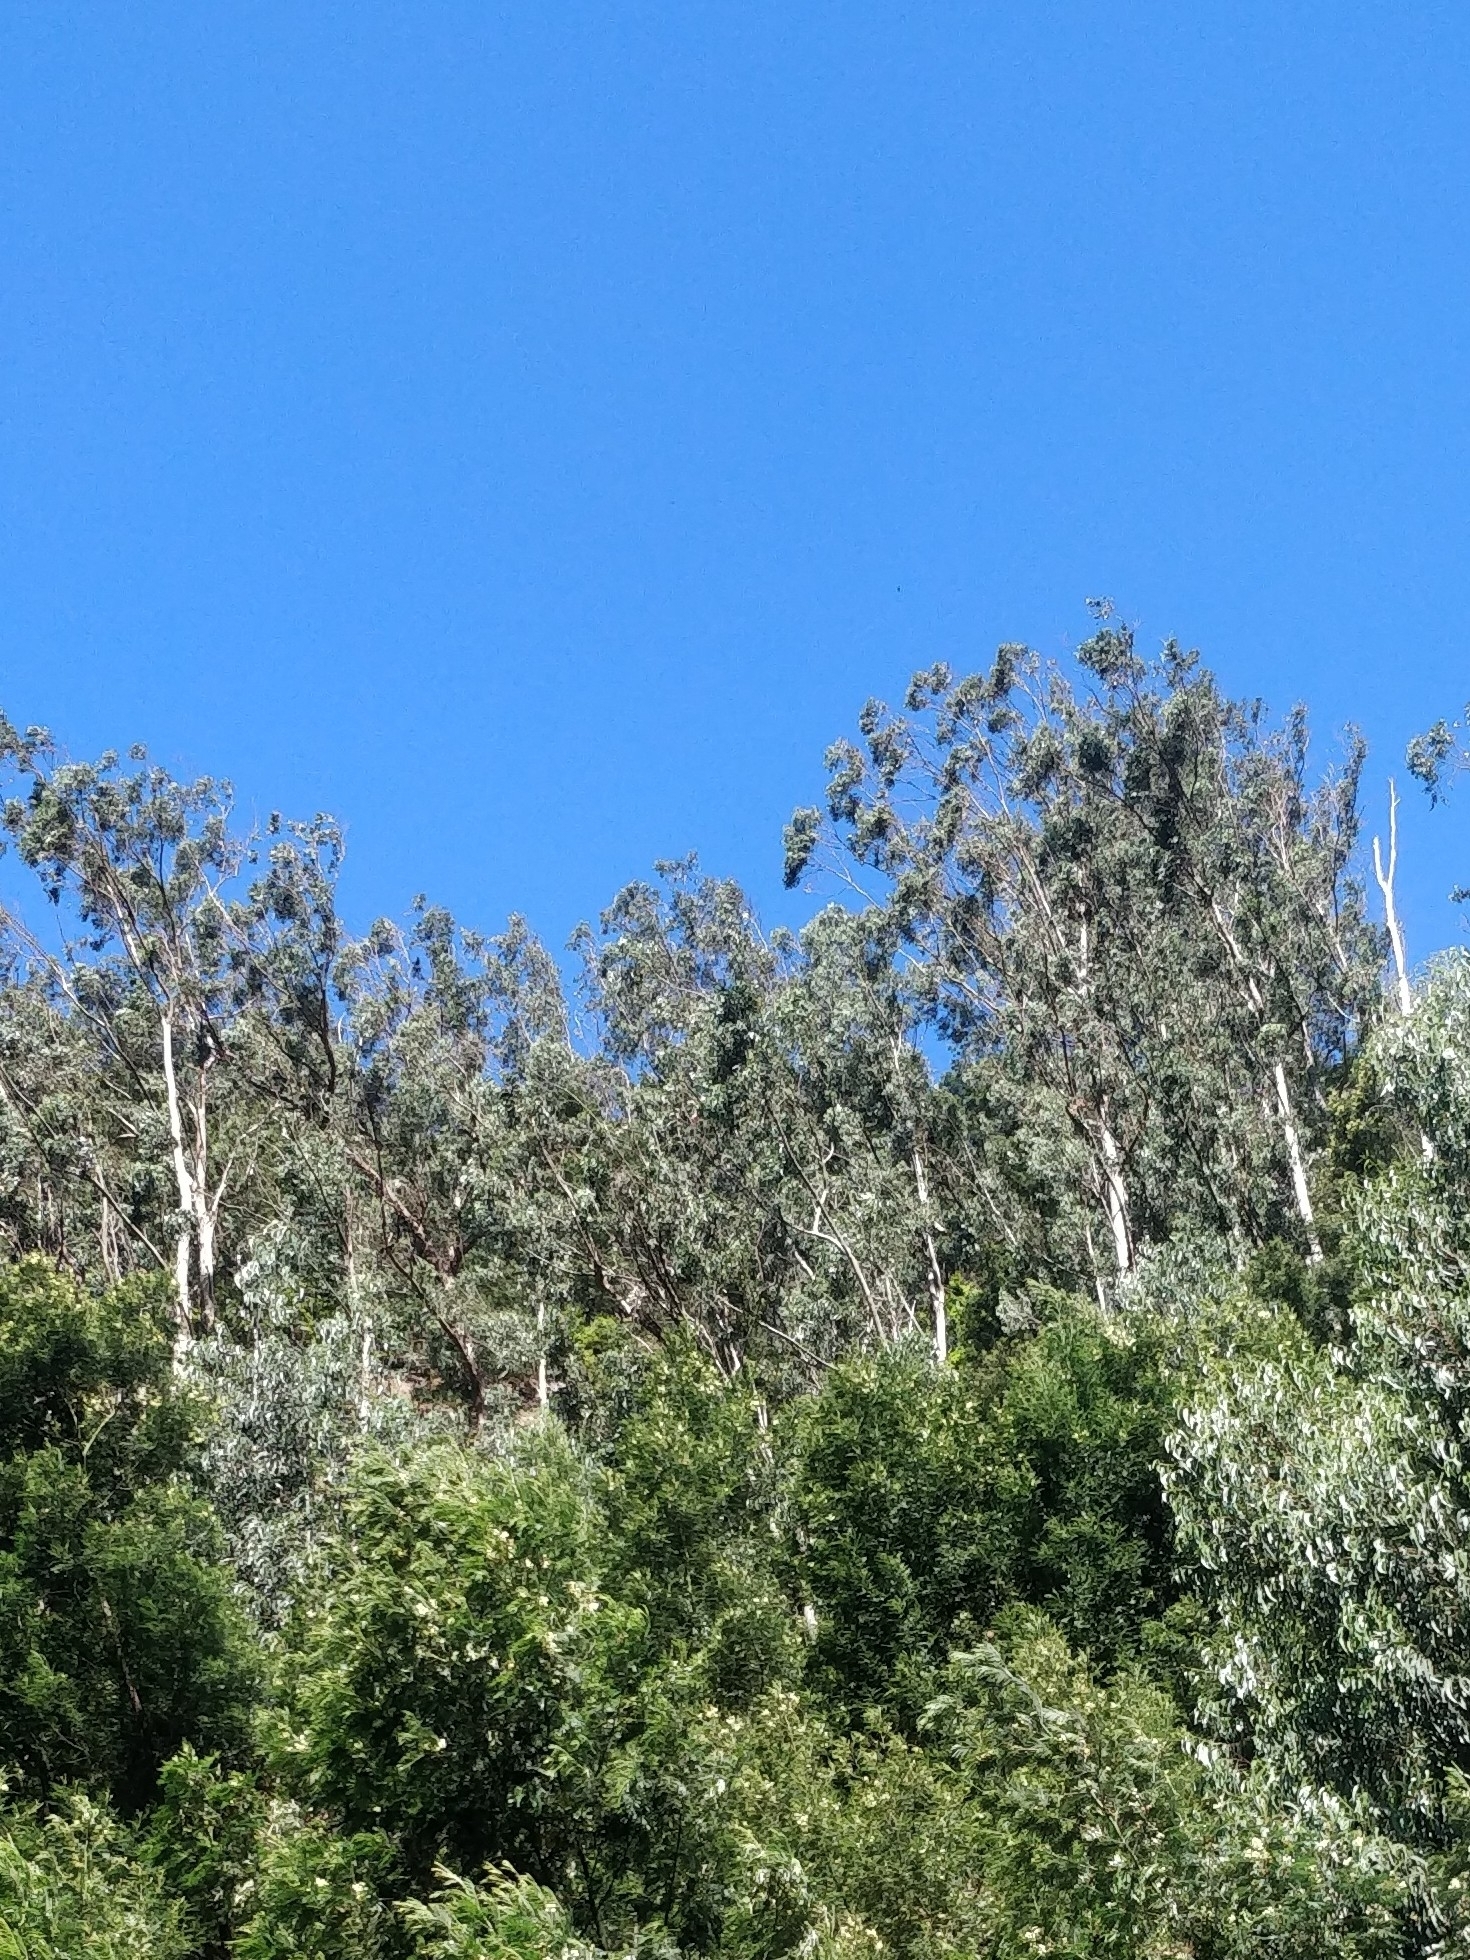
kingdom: Plantae
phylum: Tracheophyta
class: Magnoliopsida
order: Myrtales
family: Myrtaceae
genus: Eucalyptus
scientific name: Eucalyptus globulus
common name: Southern blue-gum
